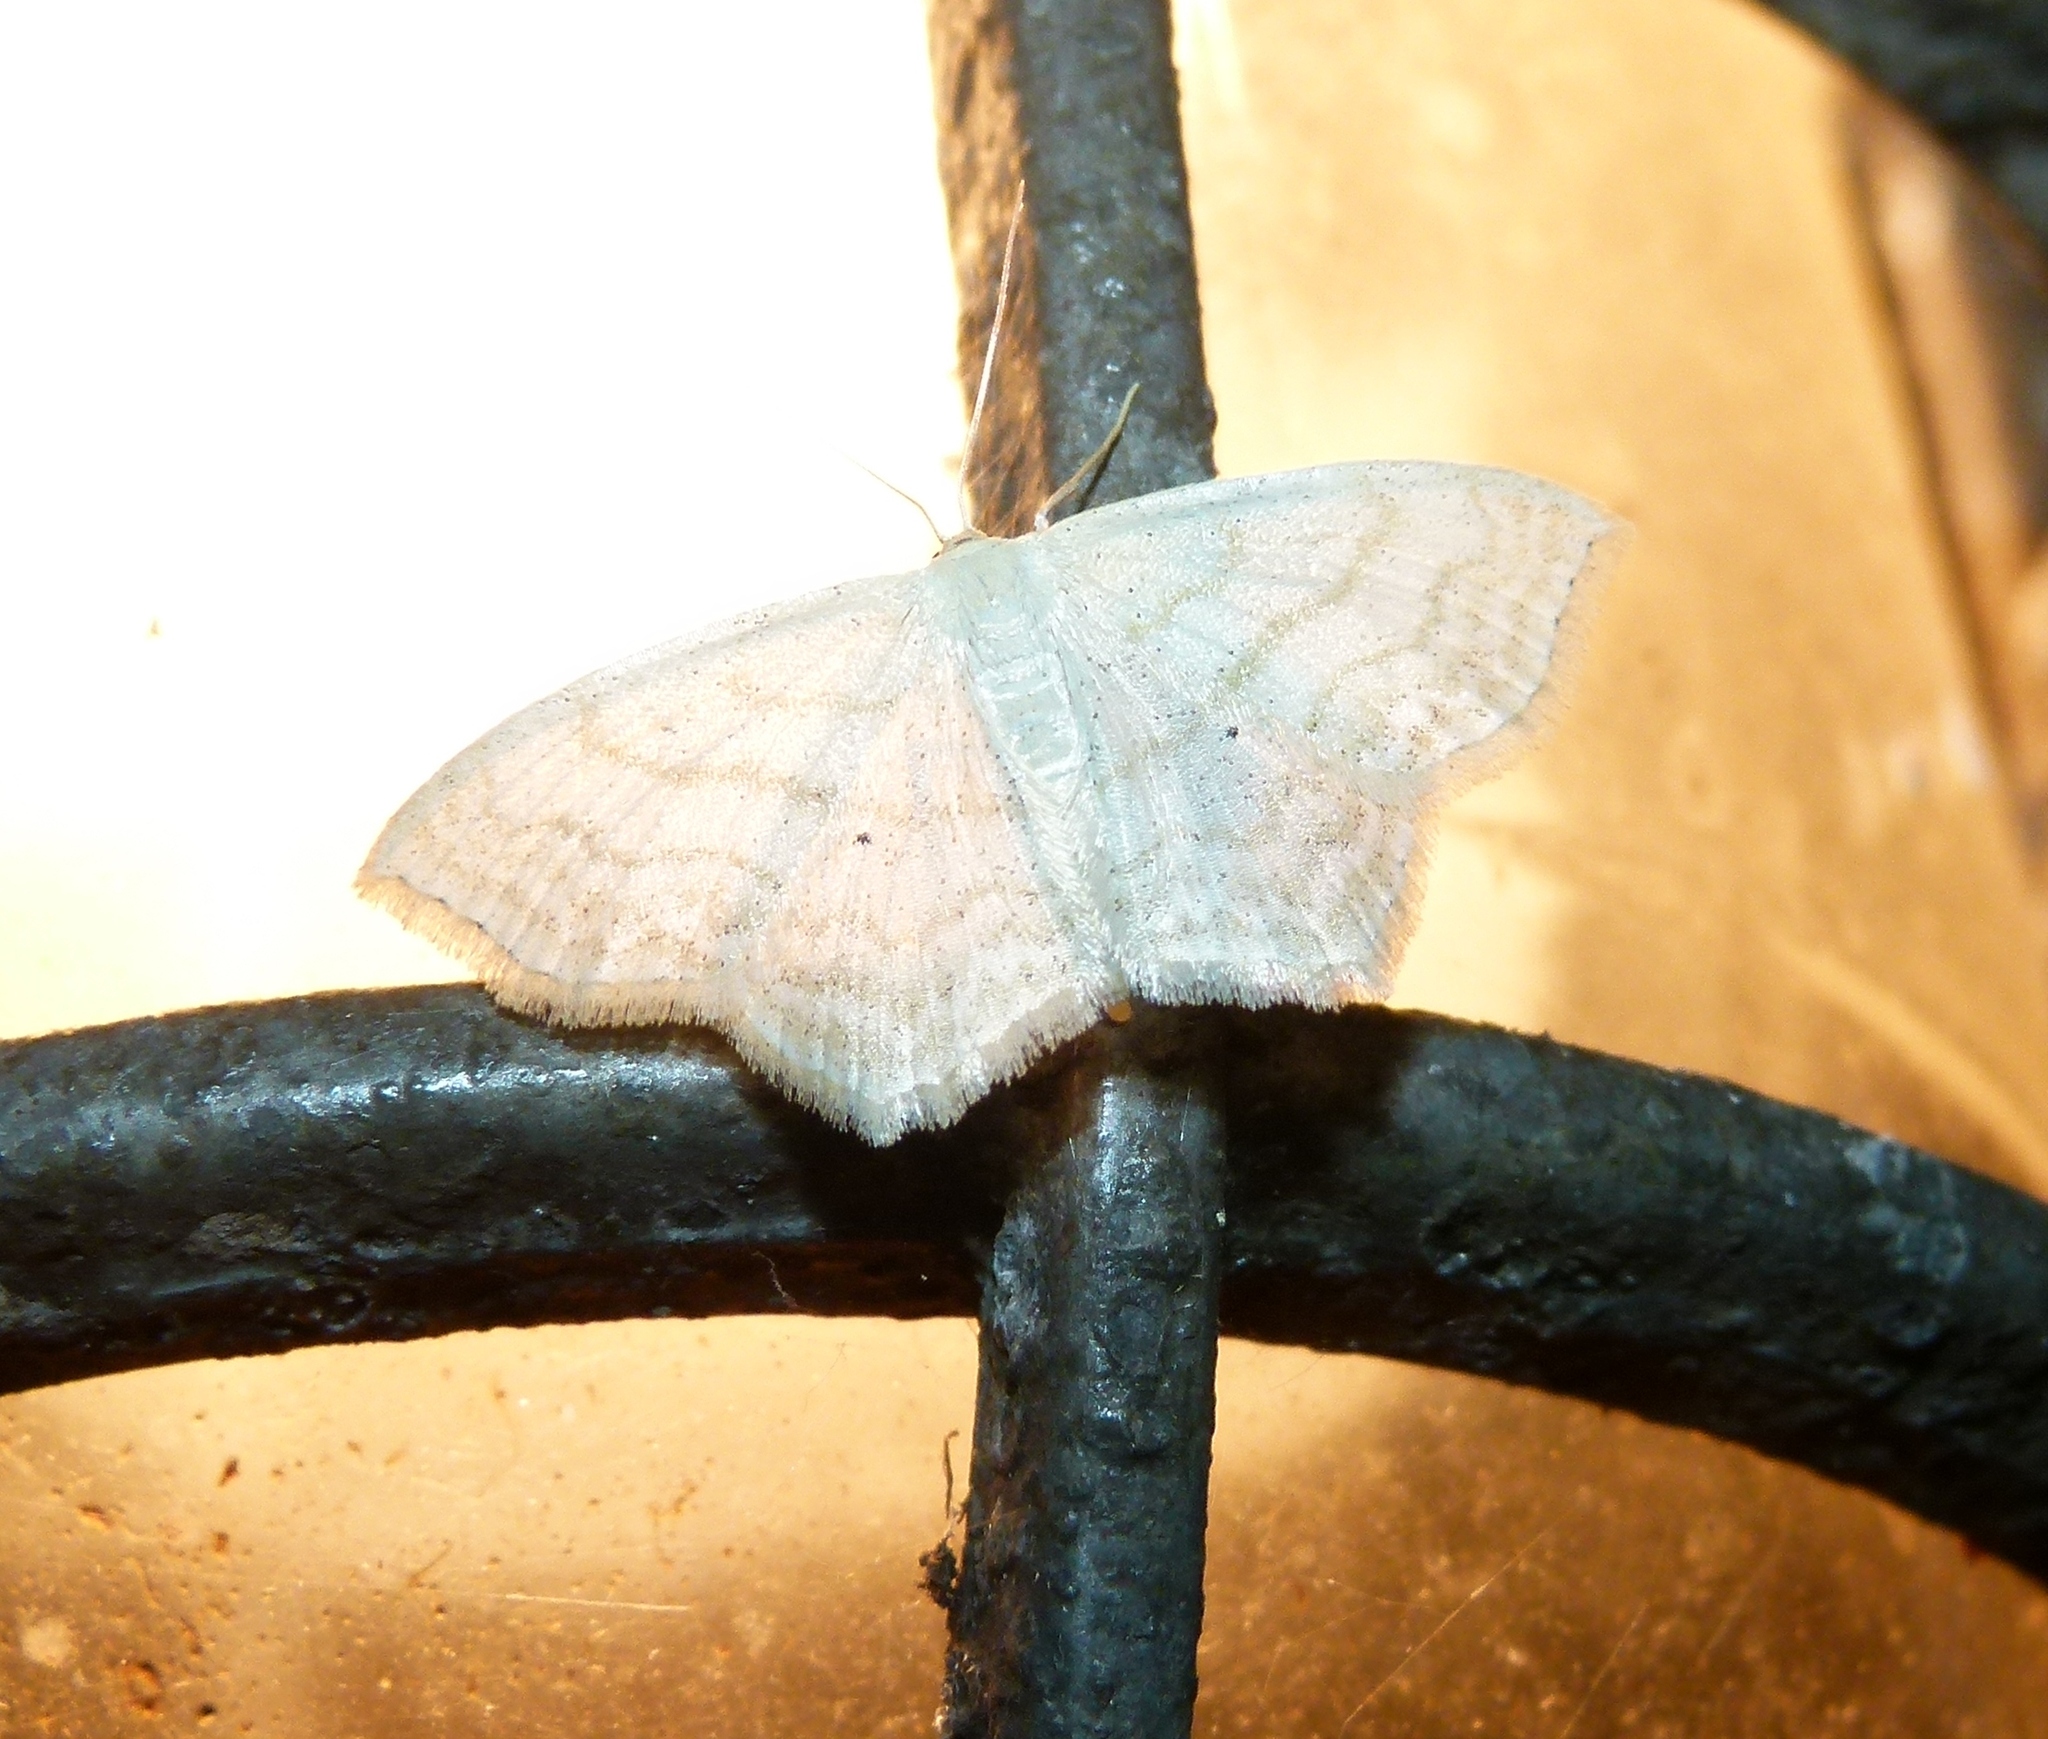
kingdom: Animalia
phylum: Arthropoda
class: Insecta
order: Lepidoptera
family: Geometridae
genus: Scopula
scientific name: Scopula limboundata
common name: Large lace border
